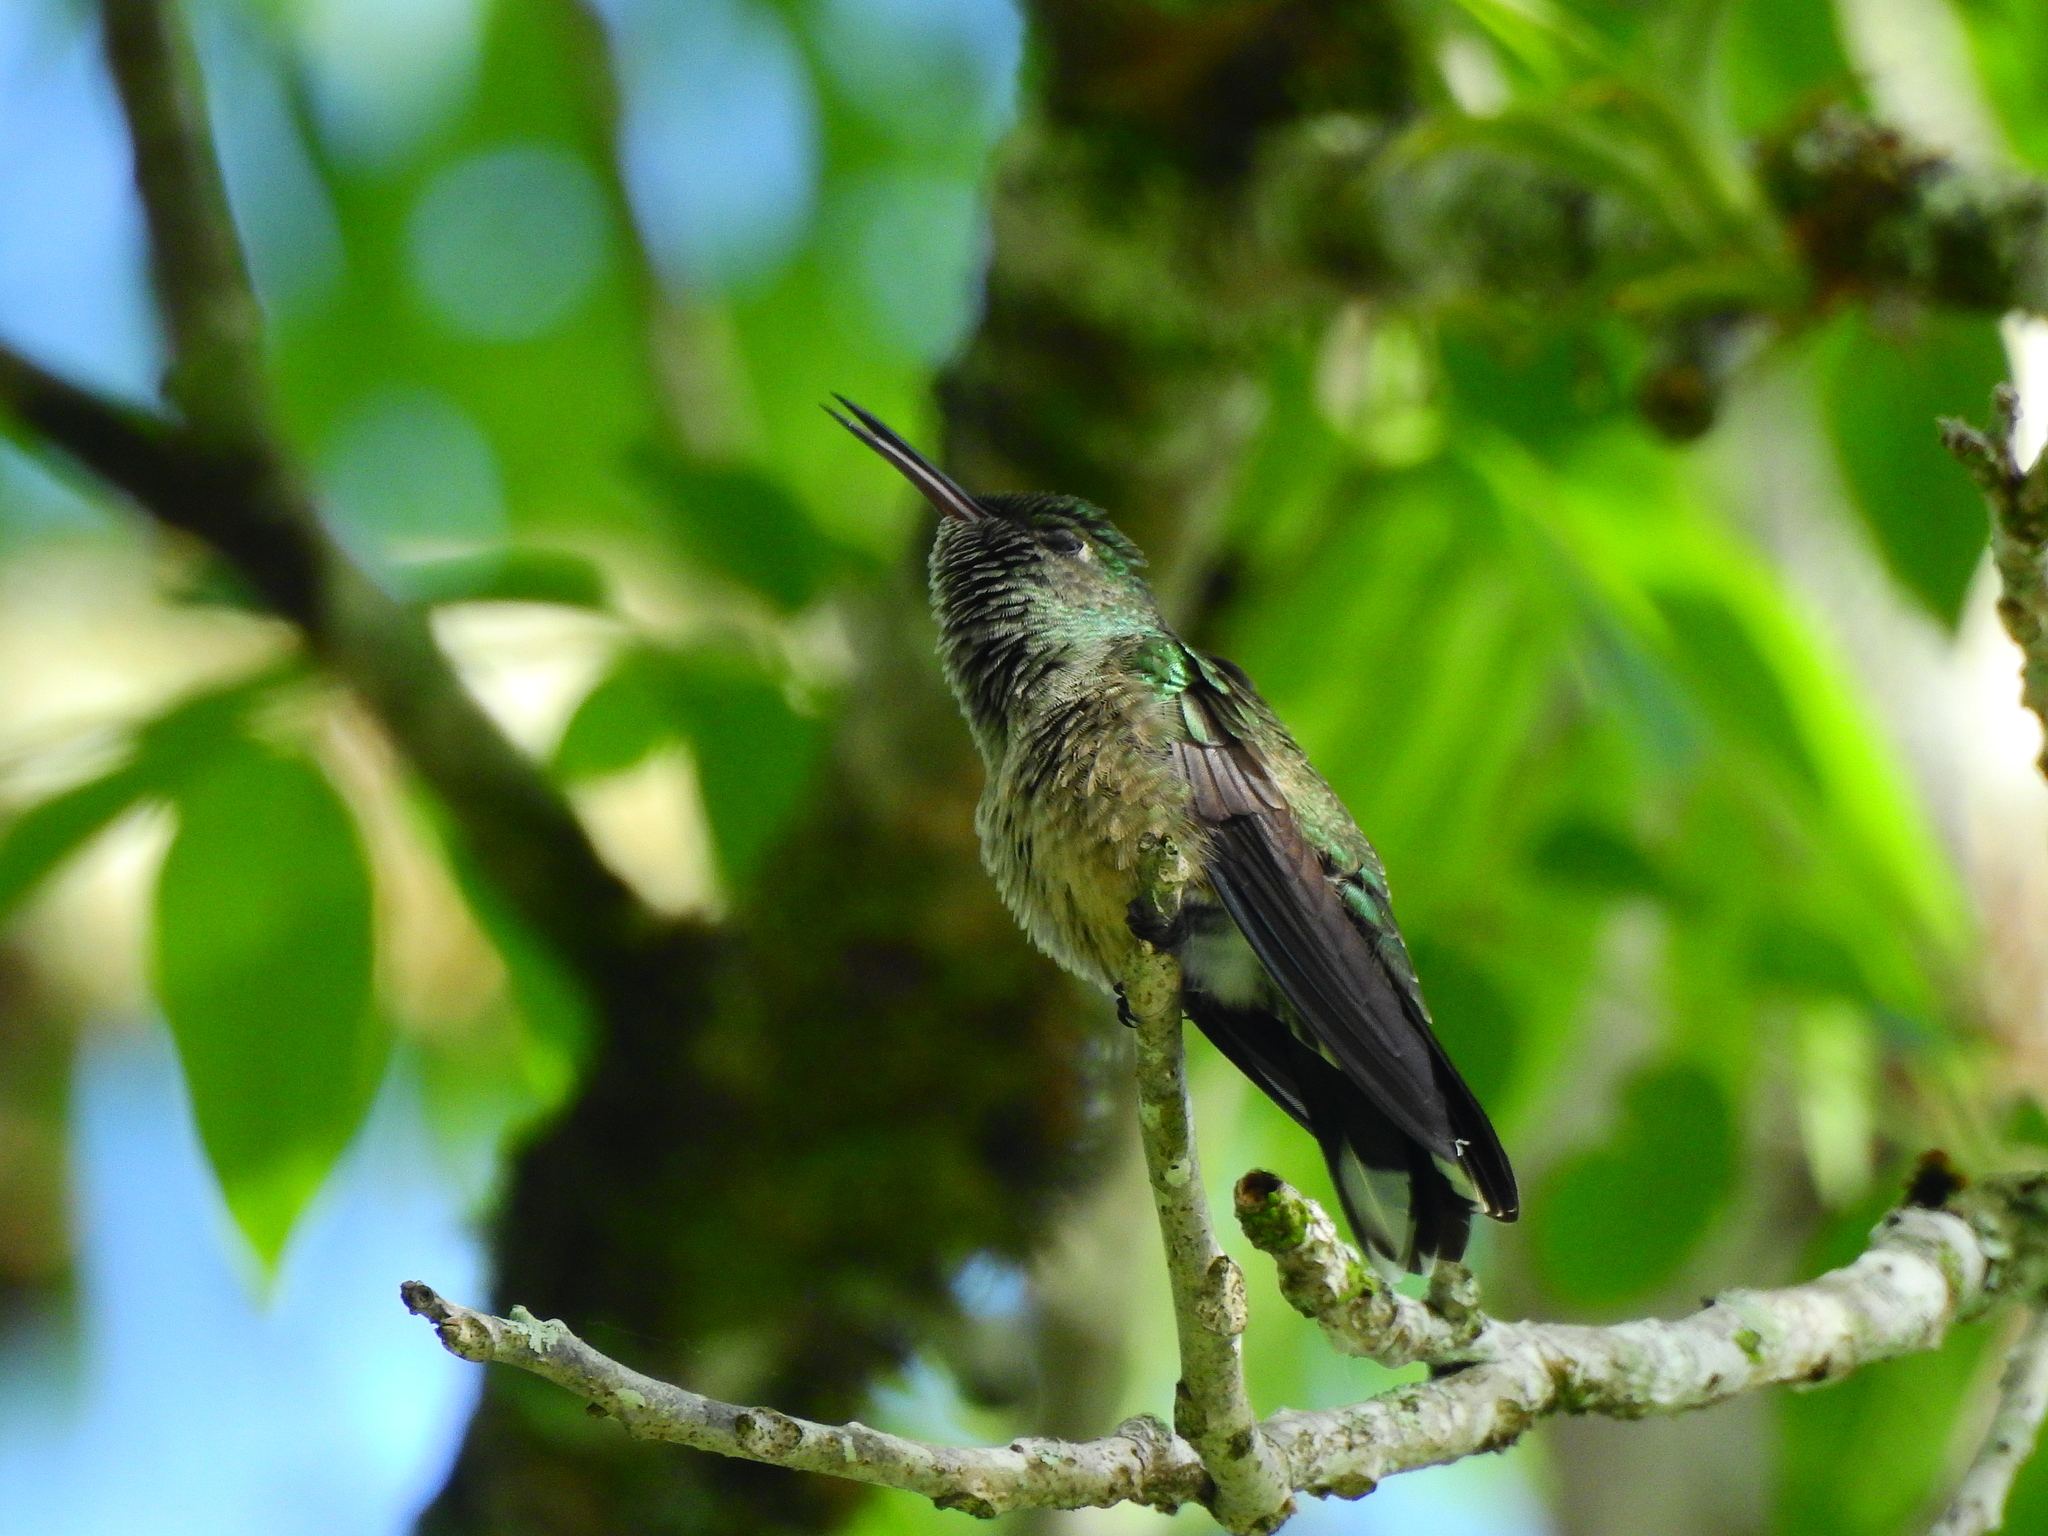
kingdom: Animalia
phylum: Chordata
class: Aves
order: Apodiformes
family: Trochilidae
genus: Phaeochroa
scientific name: Phaeochroa cuvierii
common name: Scaly-breasted hummingbird
